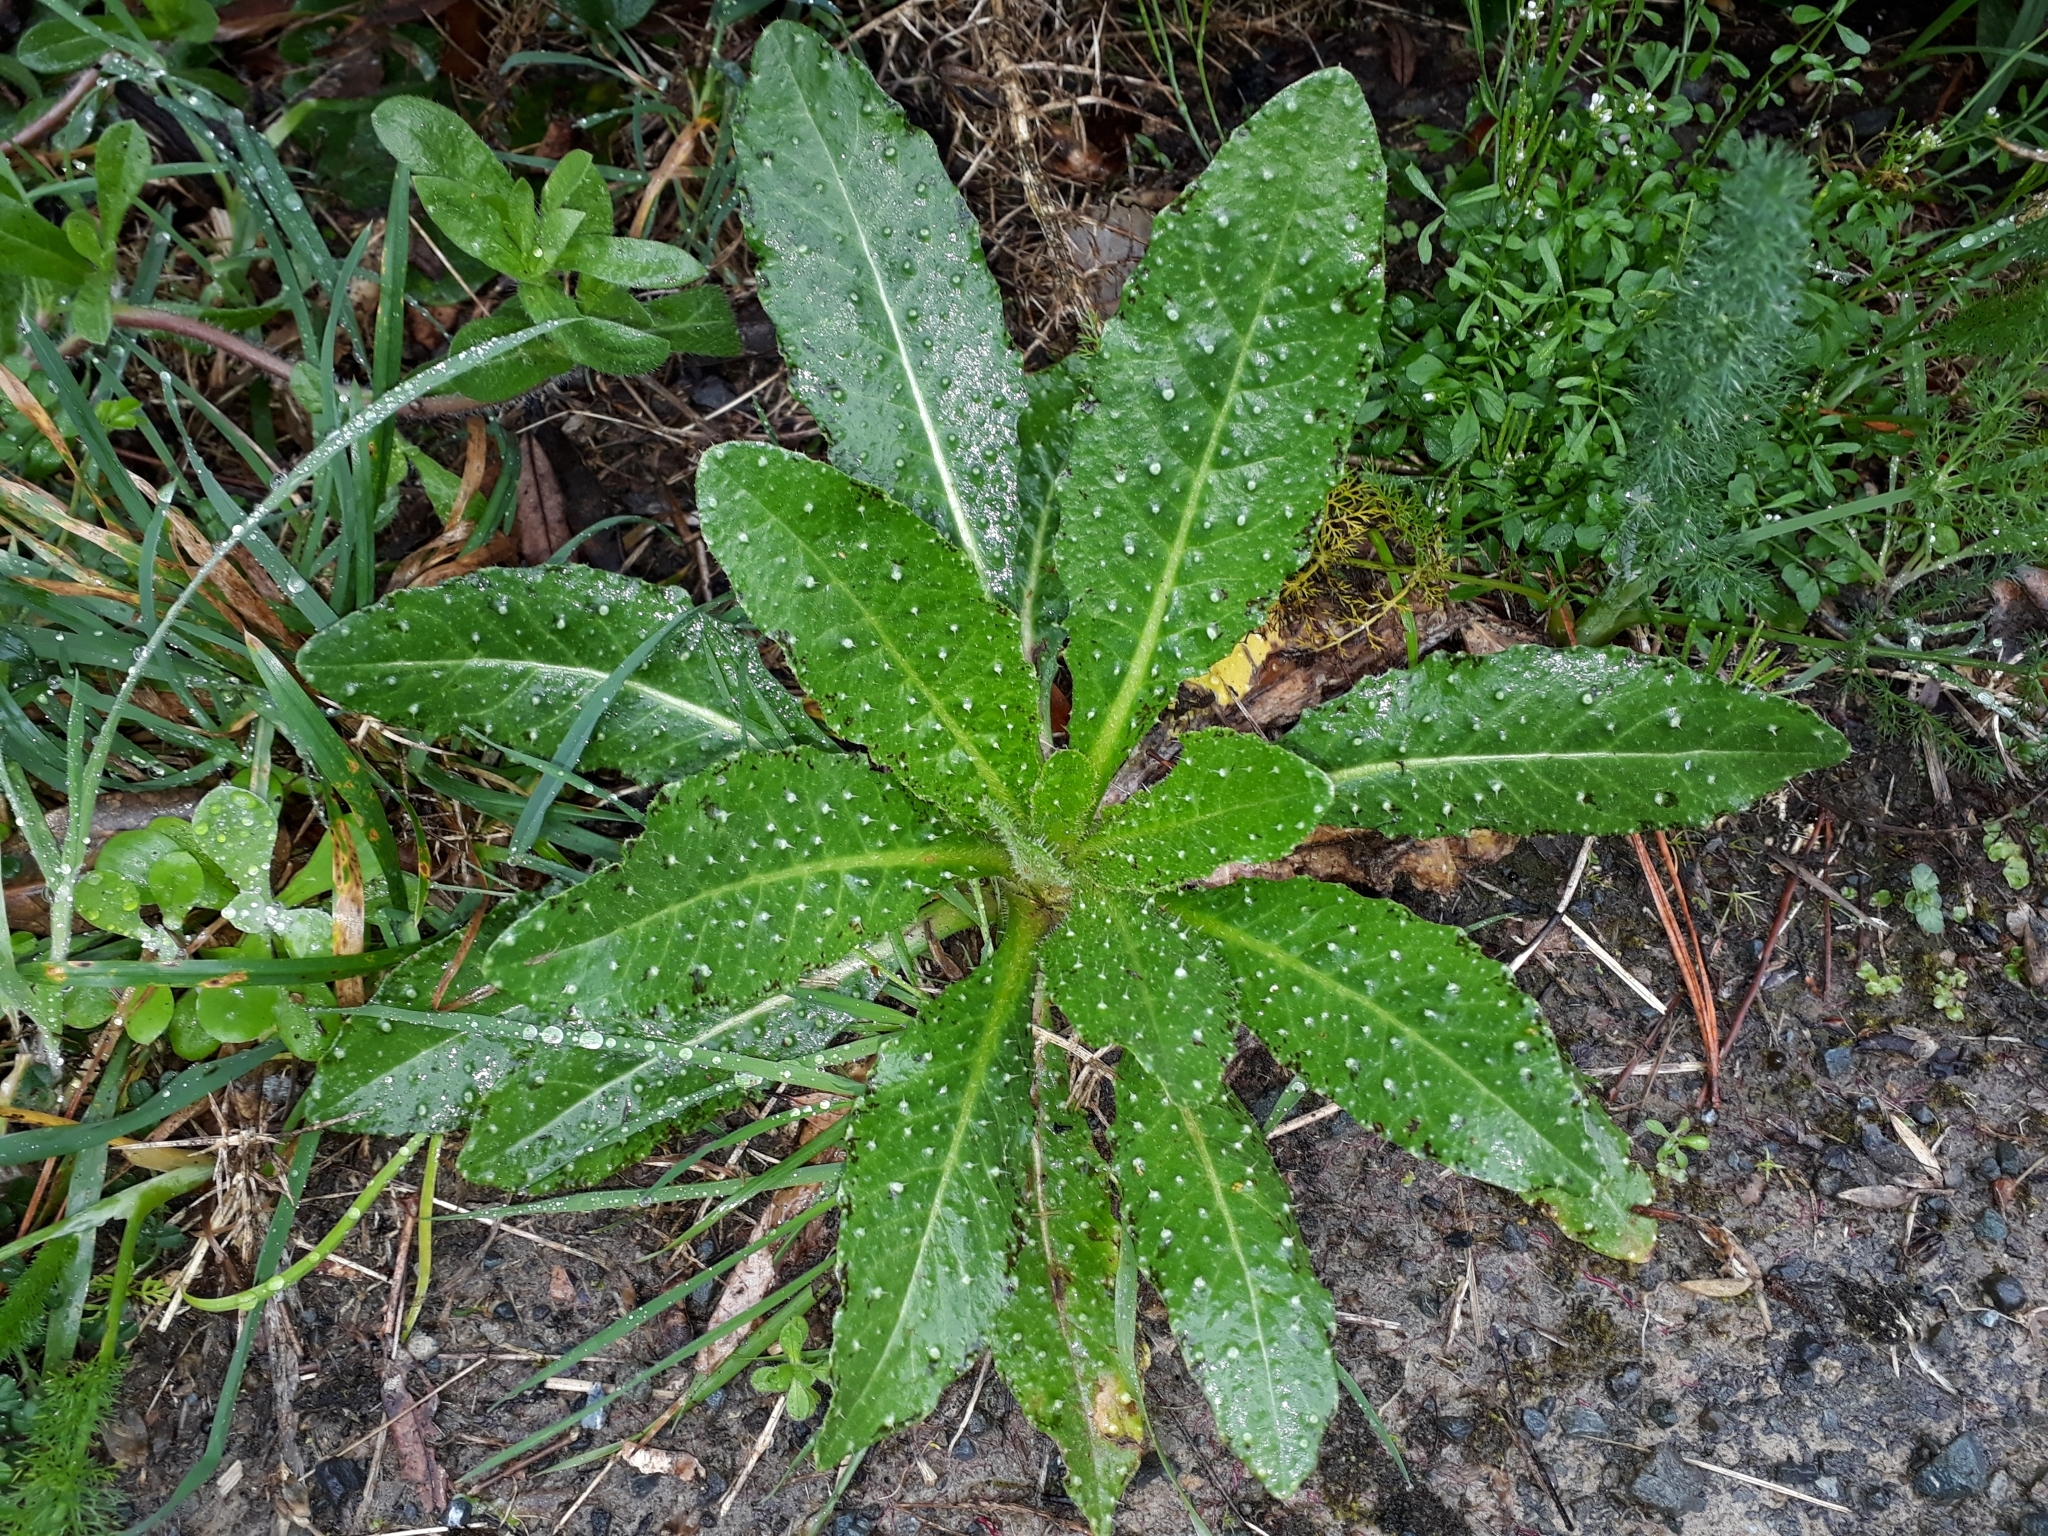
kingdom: Plantae
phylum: Tracheophyta
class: Magnoliopsida
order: Asterales
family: Asteraceae
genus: Helminthotheca
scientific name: Helminthotheca echioides
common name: Ox-tongue
